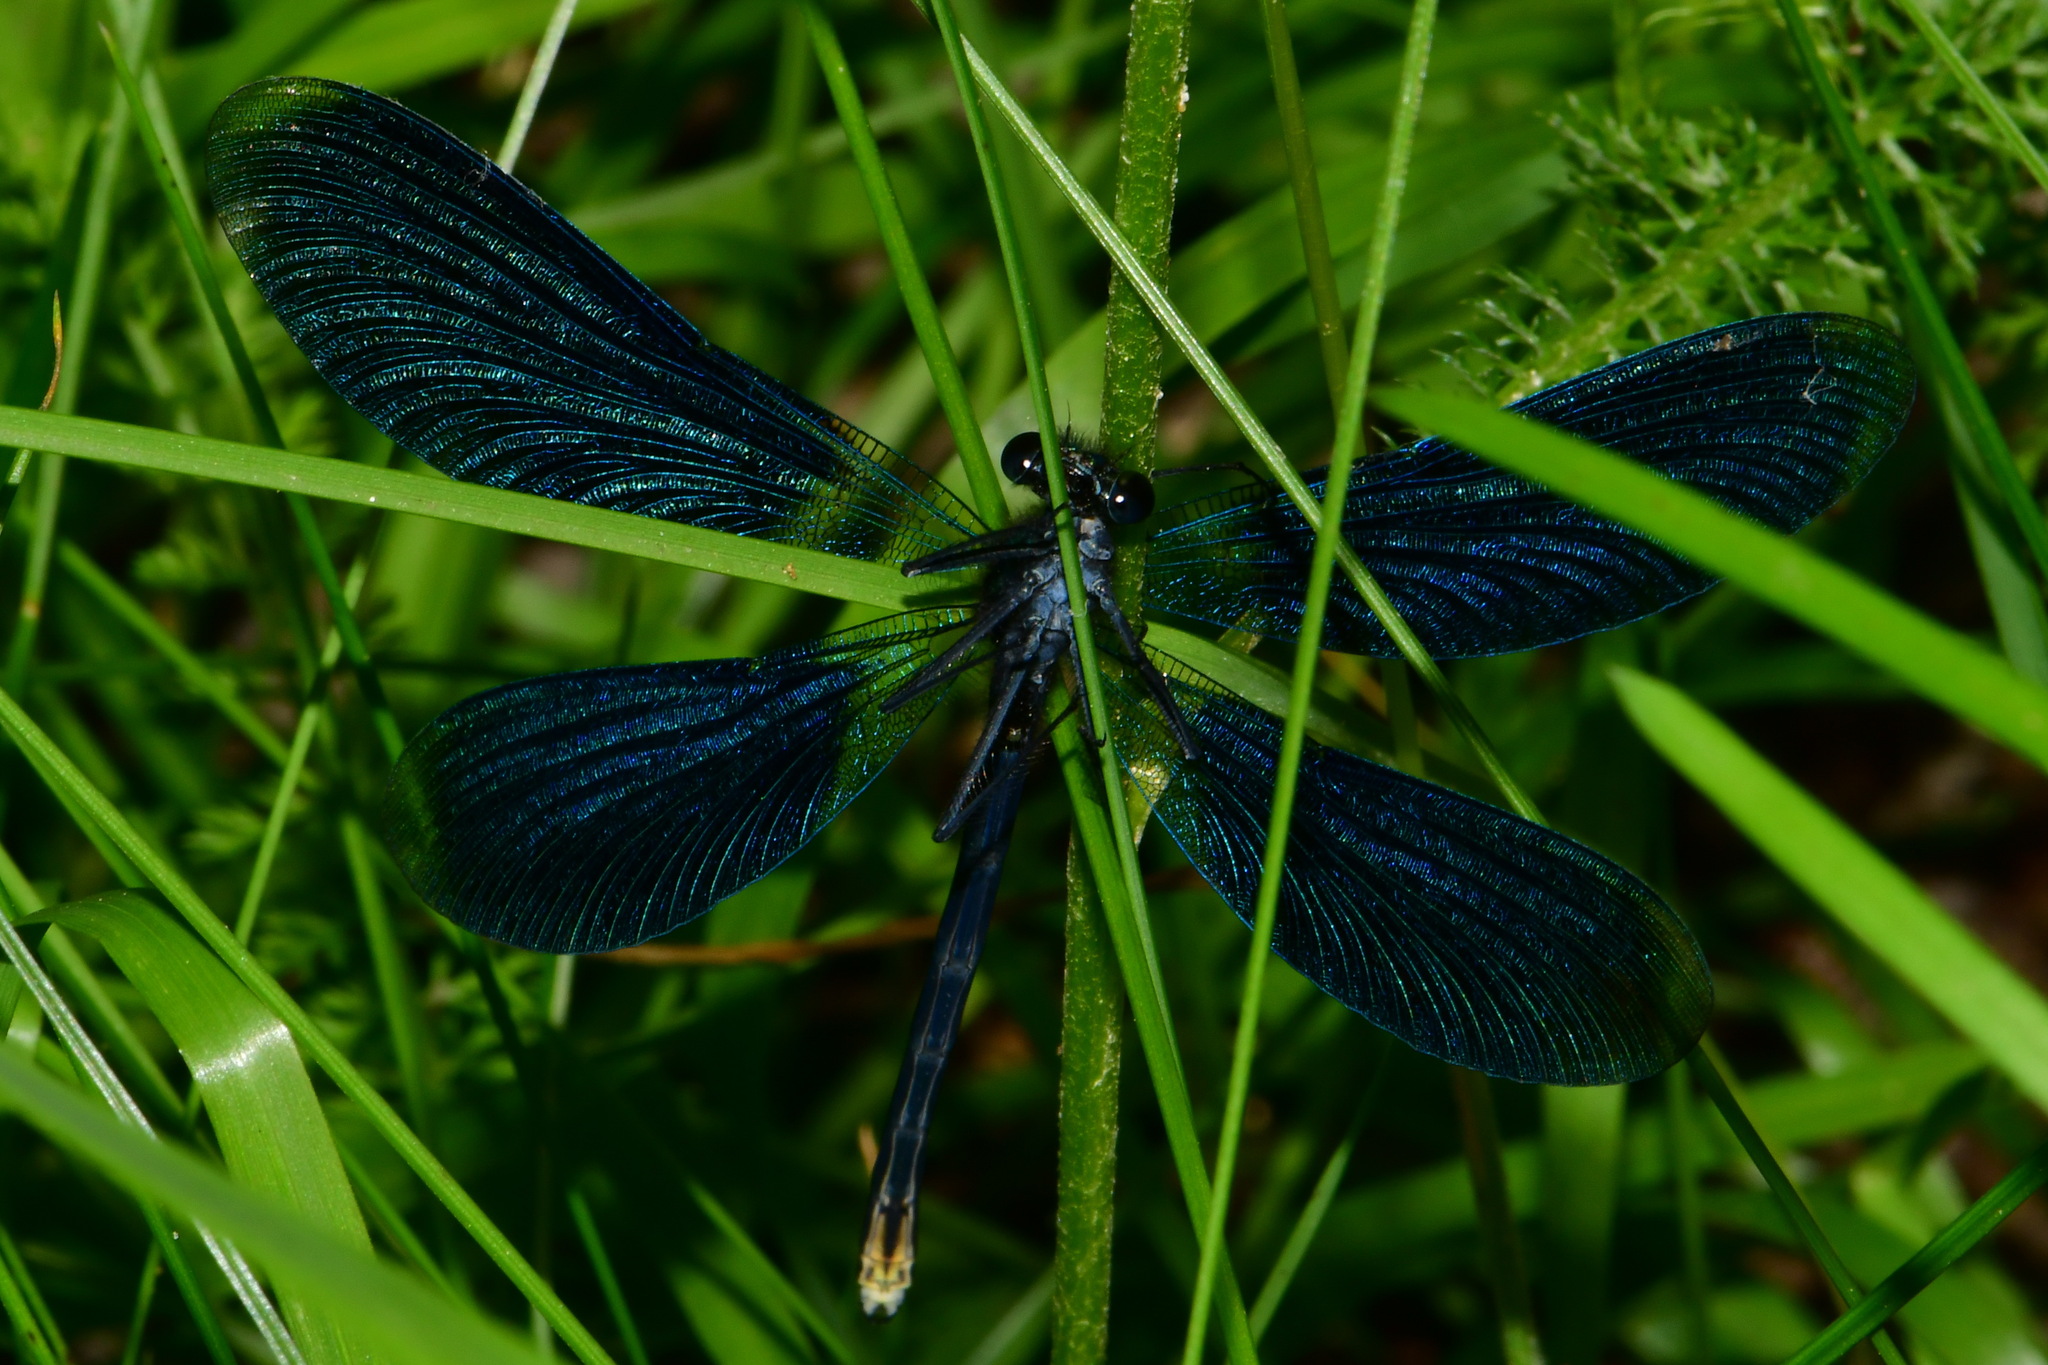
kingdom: Animalia
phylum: Arthropoda
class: Insecta
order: Odonata
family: Calopterygidae
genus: Calopteryx
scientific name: Calopteryx splendens
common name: Banded demoiselle
